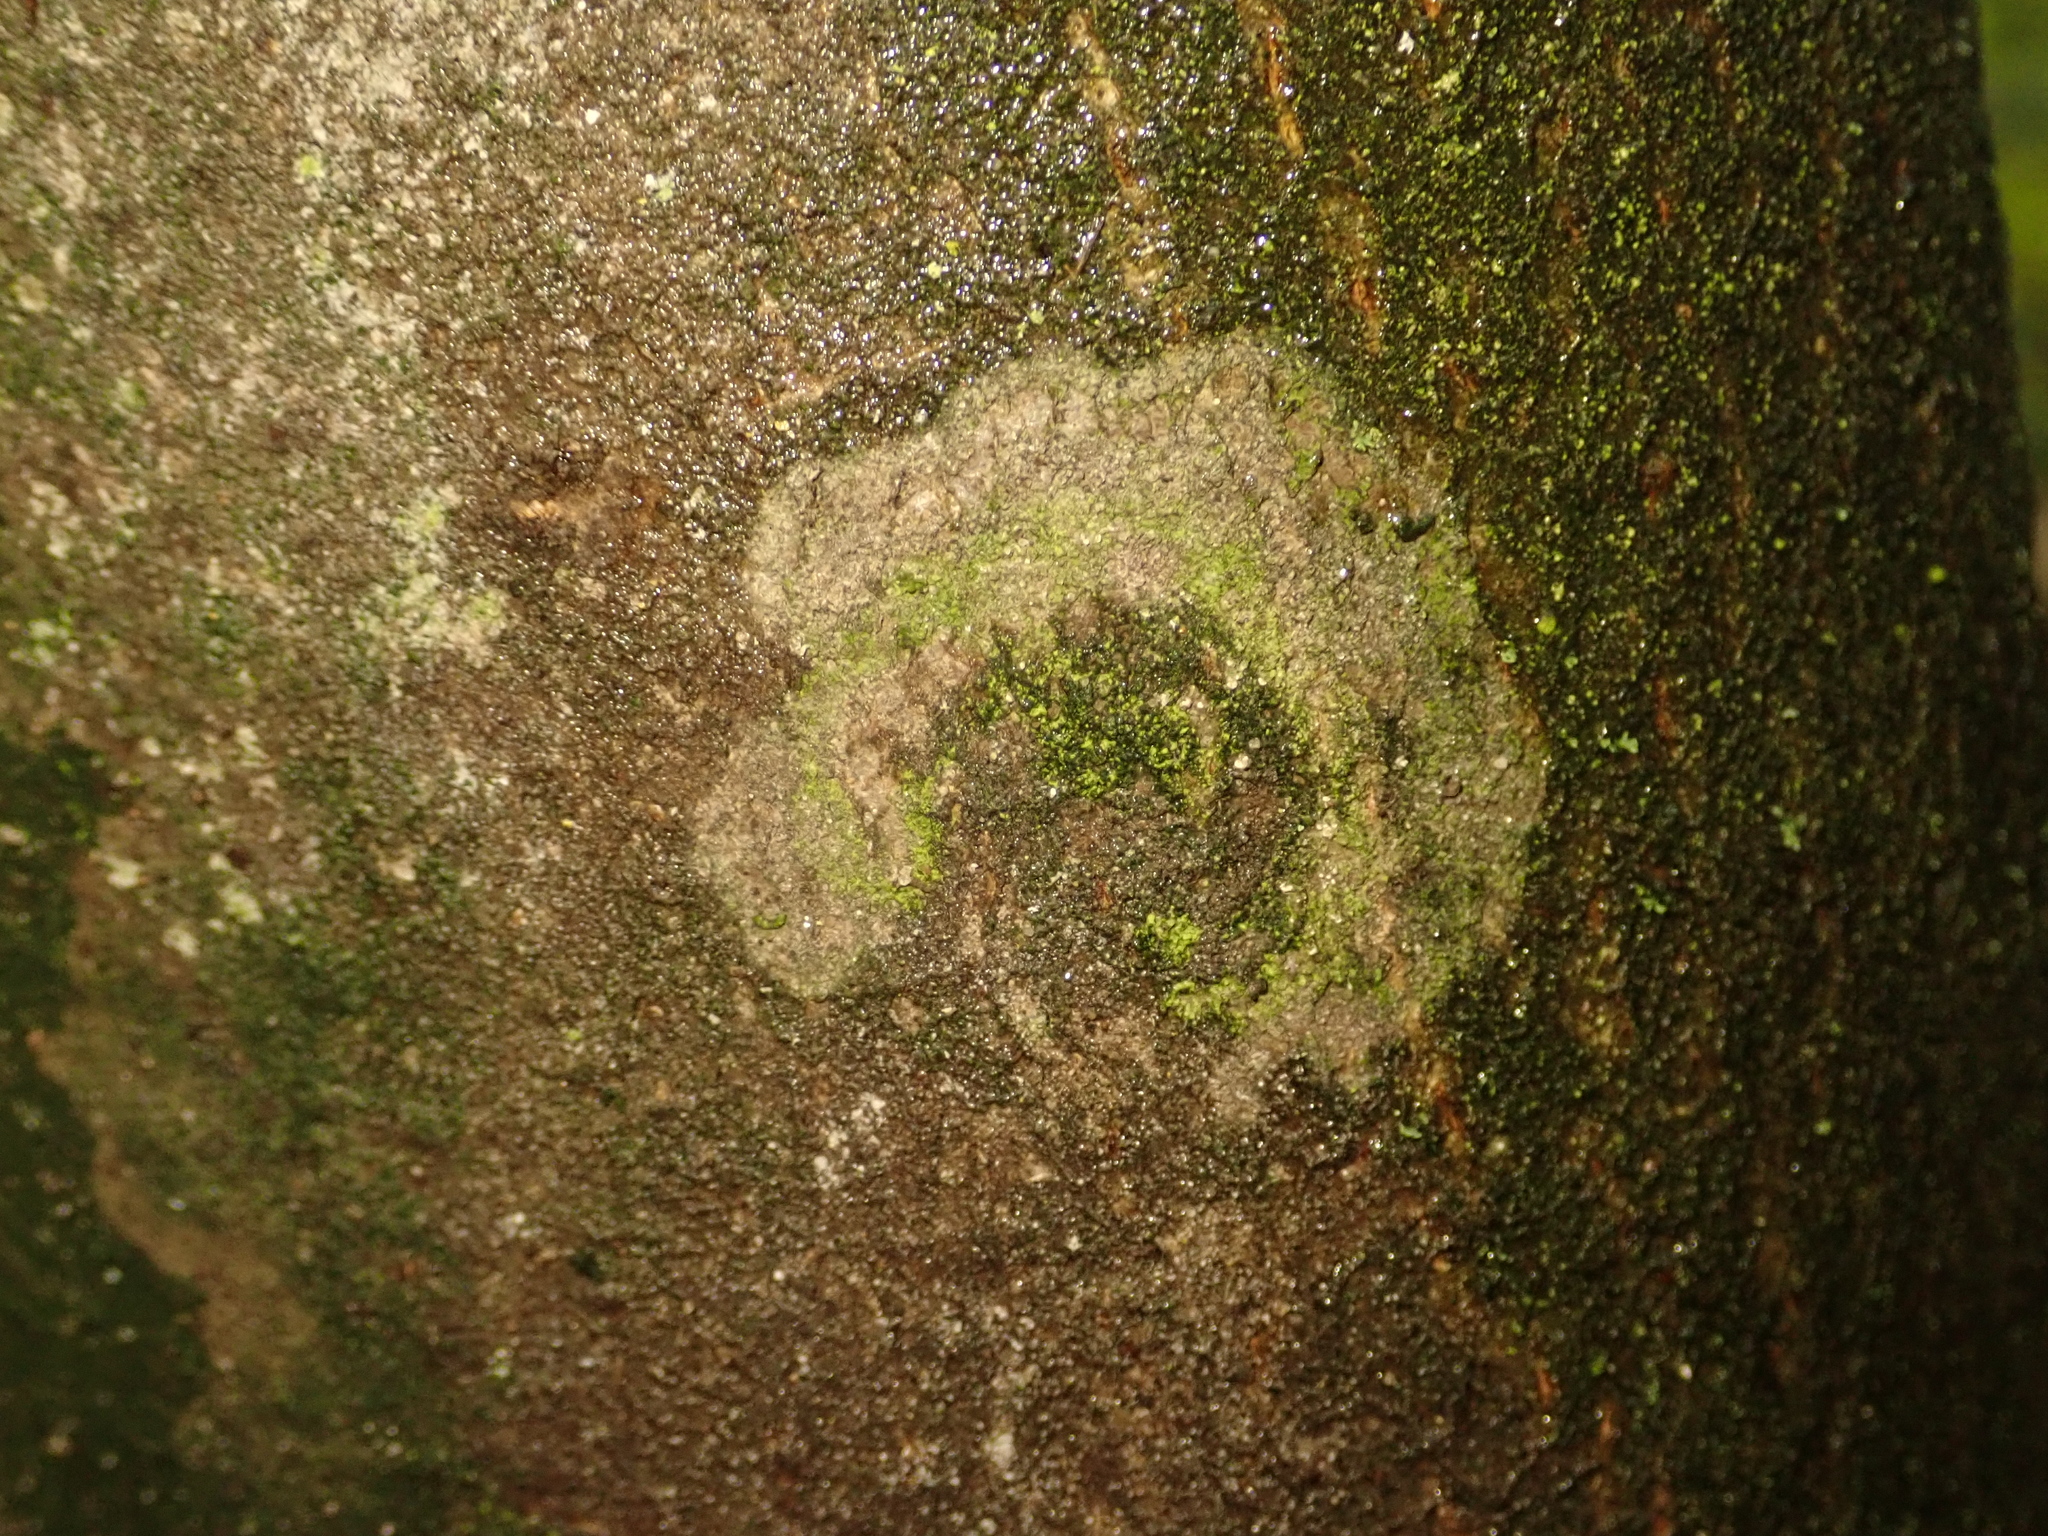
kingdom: Fungi
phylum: Basidiomycota
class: Agaricomycetes
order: Atheliales
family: Atheliaceae
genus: Athelia
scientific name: Athelia arachnoidea
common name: Candelabra duster
